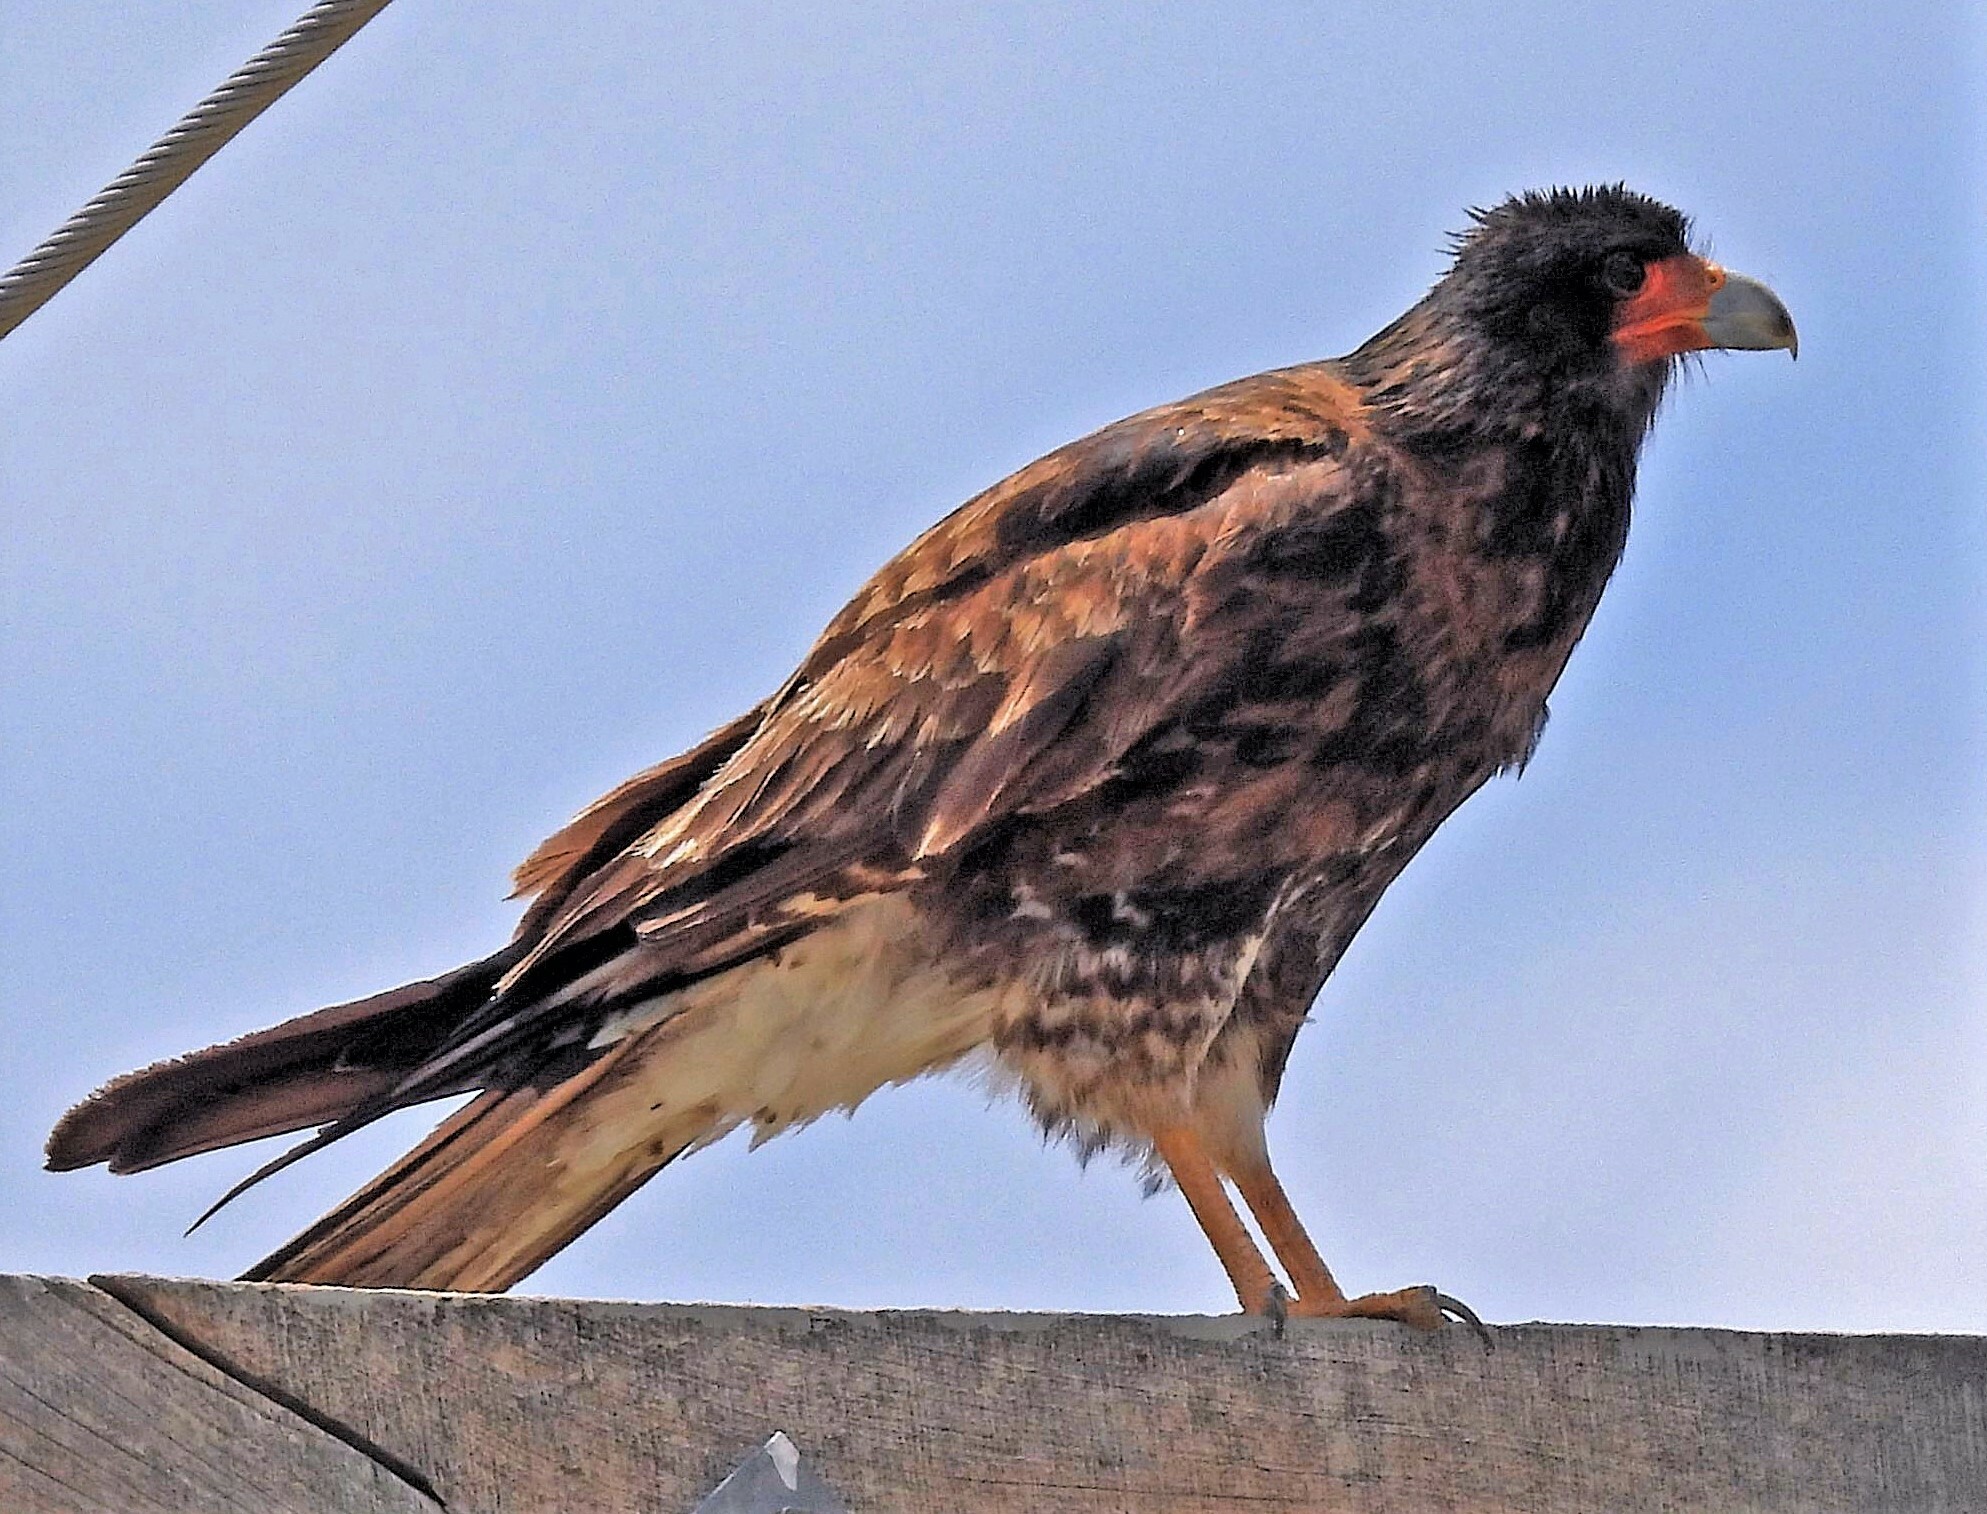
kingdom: Animalia
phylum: Chordata
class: Aves
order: Falconiformes
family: Falconidae
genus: Daptrius
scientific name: Daptrius
